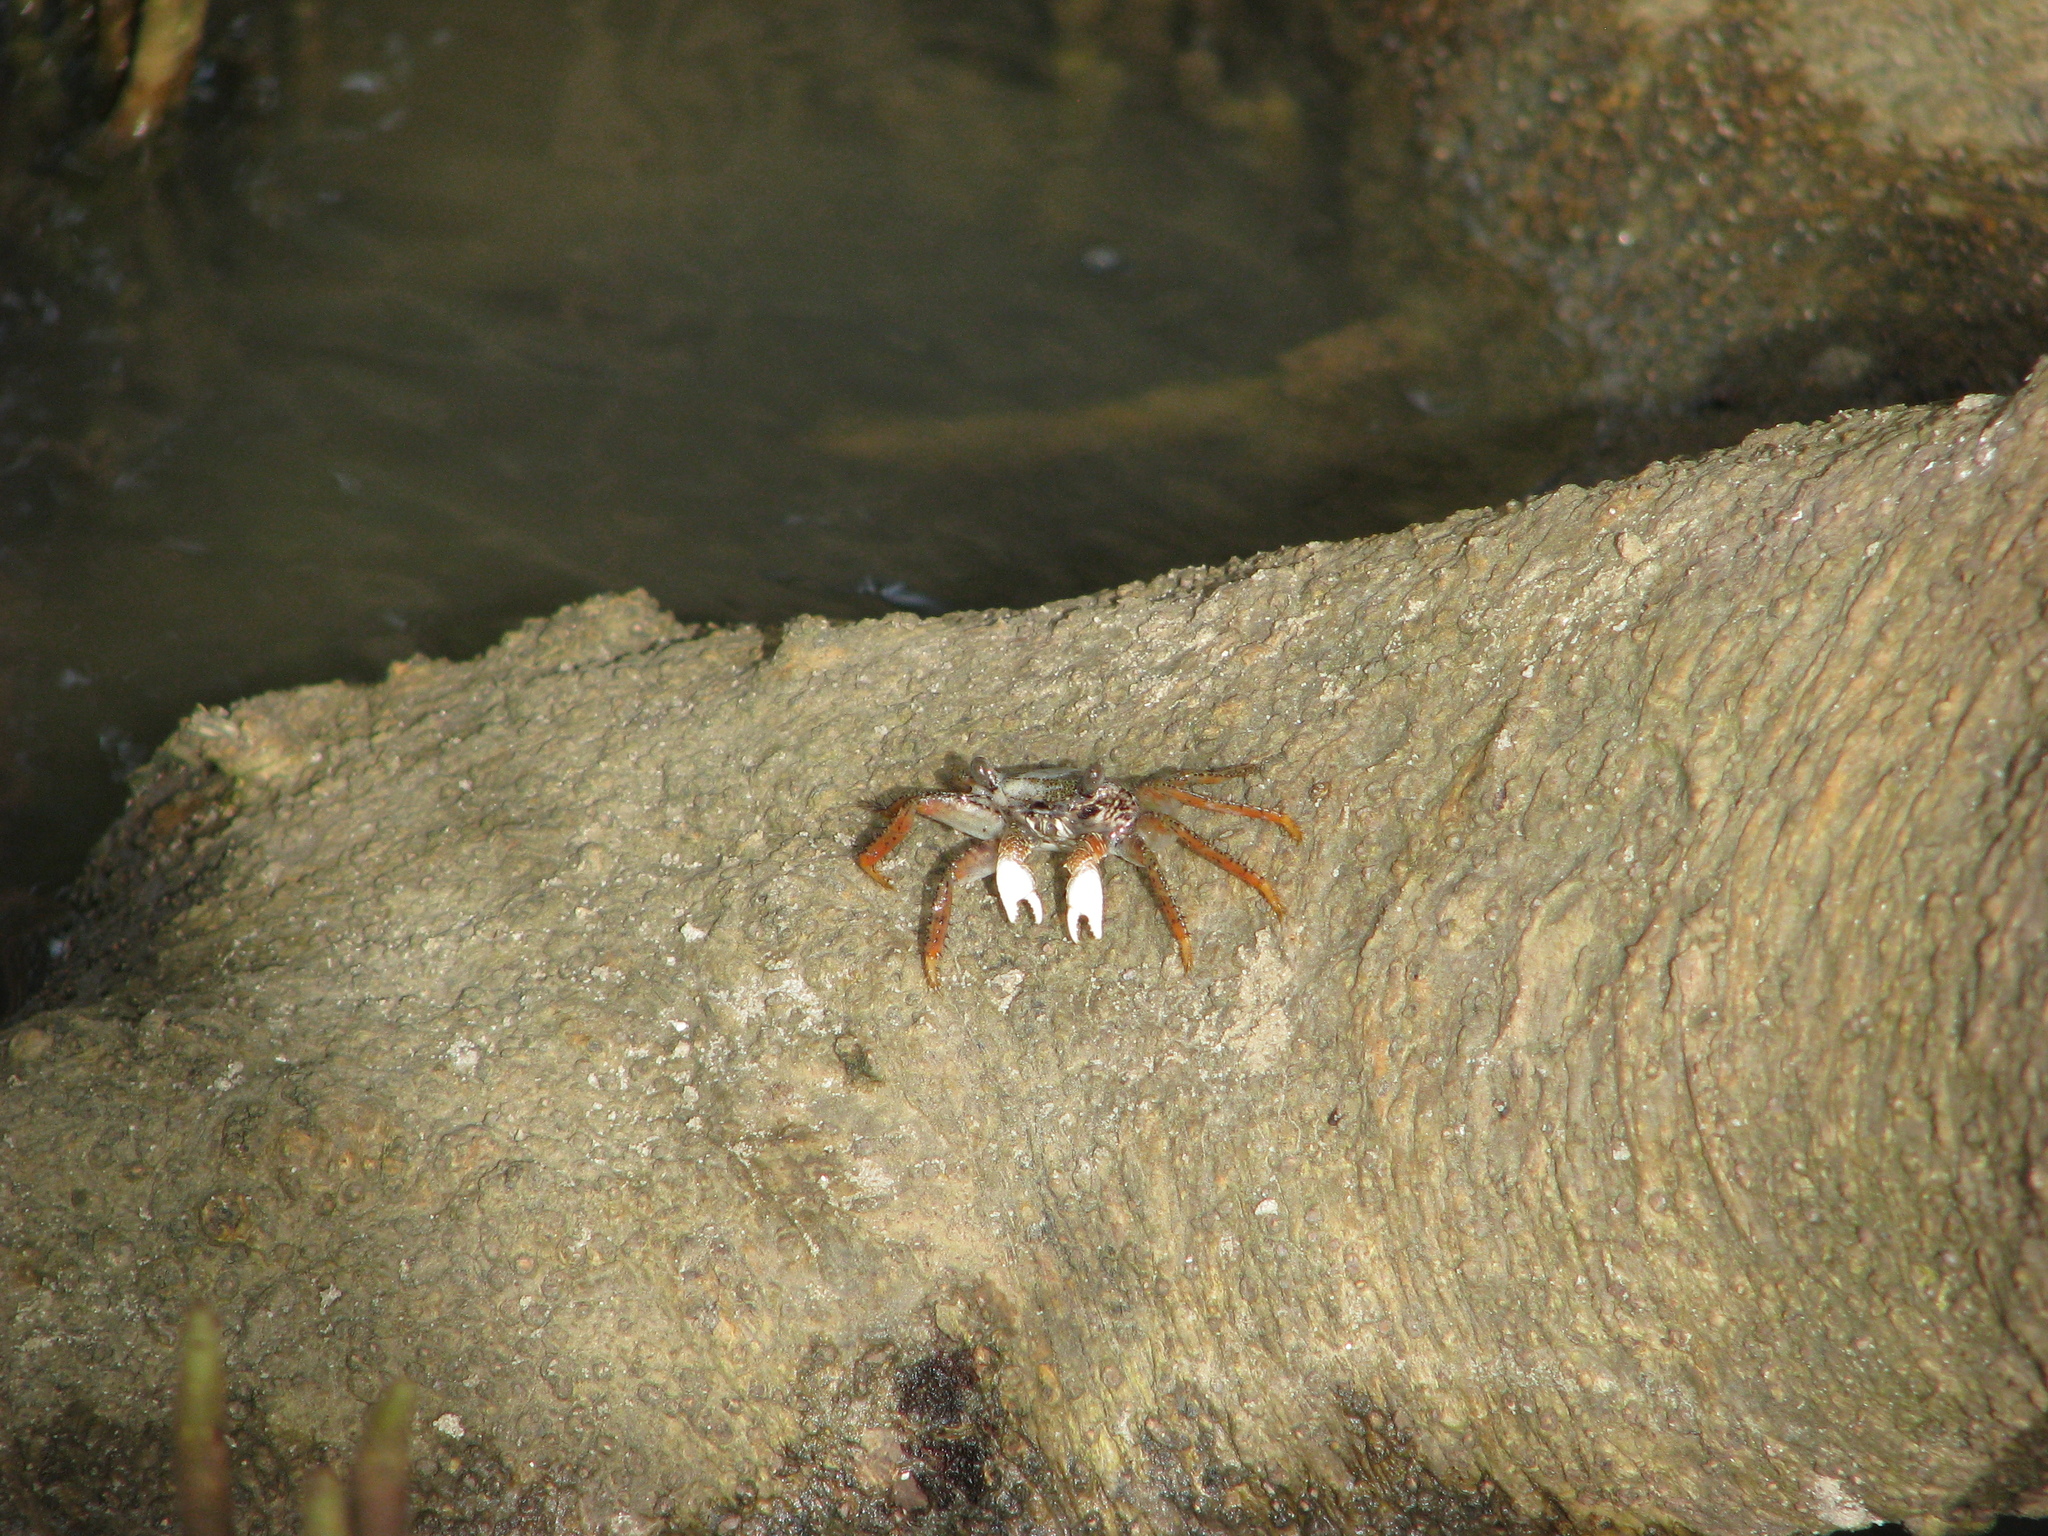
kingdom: Animalia
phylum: Arthropoda
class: Malacostraca
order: Decapoda
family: Grapsidae
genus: Goniopsis
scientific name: Goniopsis pelii
